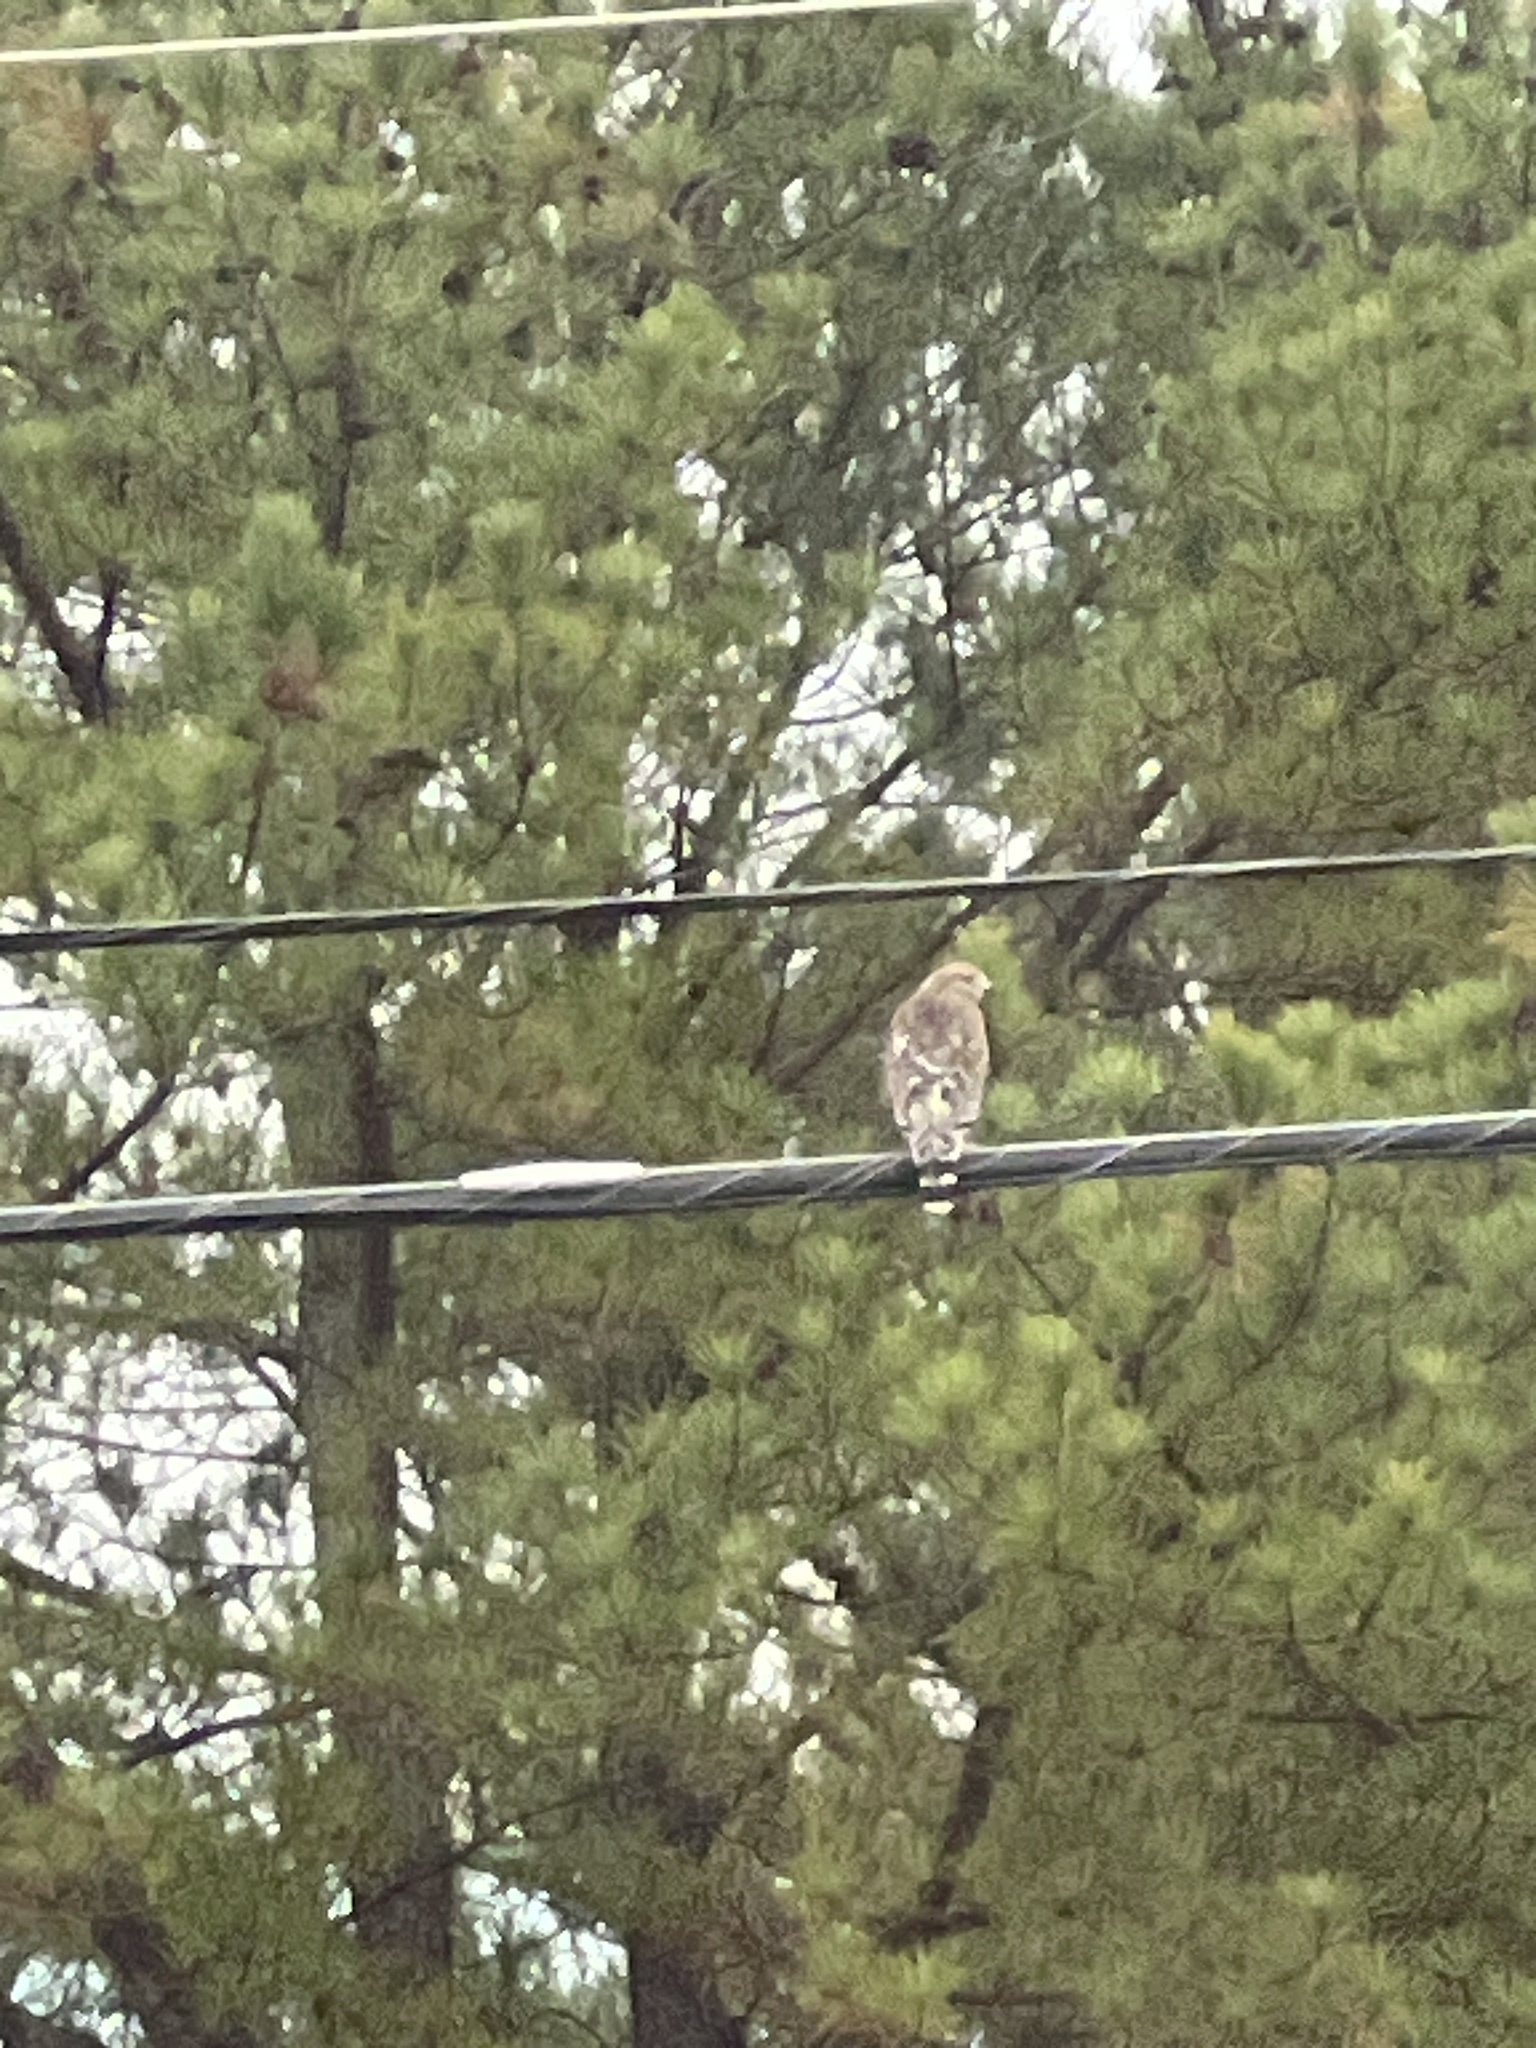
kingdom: Animalia
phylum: Chordata
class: Aves
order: Accipitriformes
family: Accipitridae
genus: Buteo
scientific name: Buteo lineatus
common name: Red-shouldered hawk
